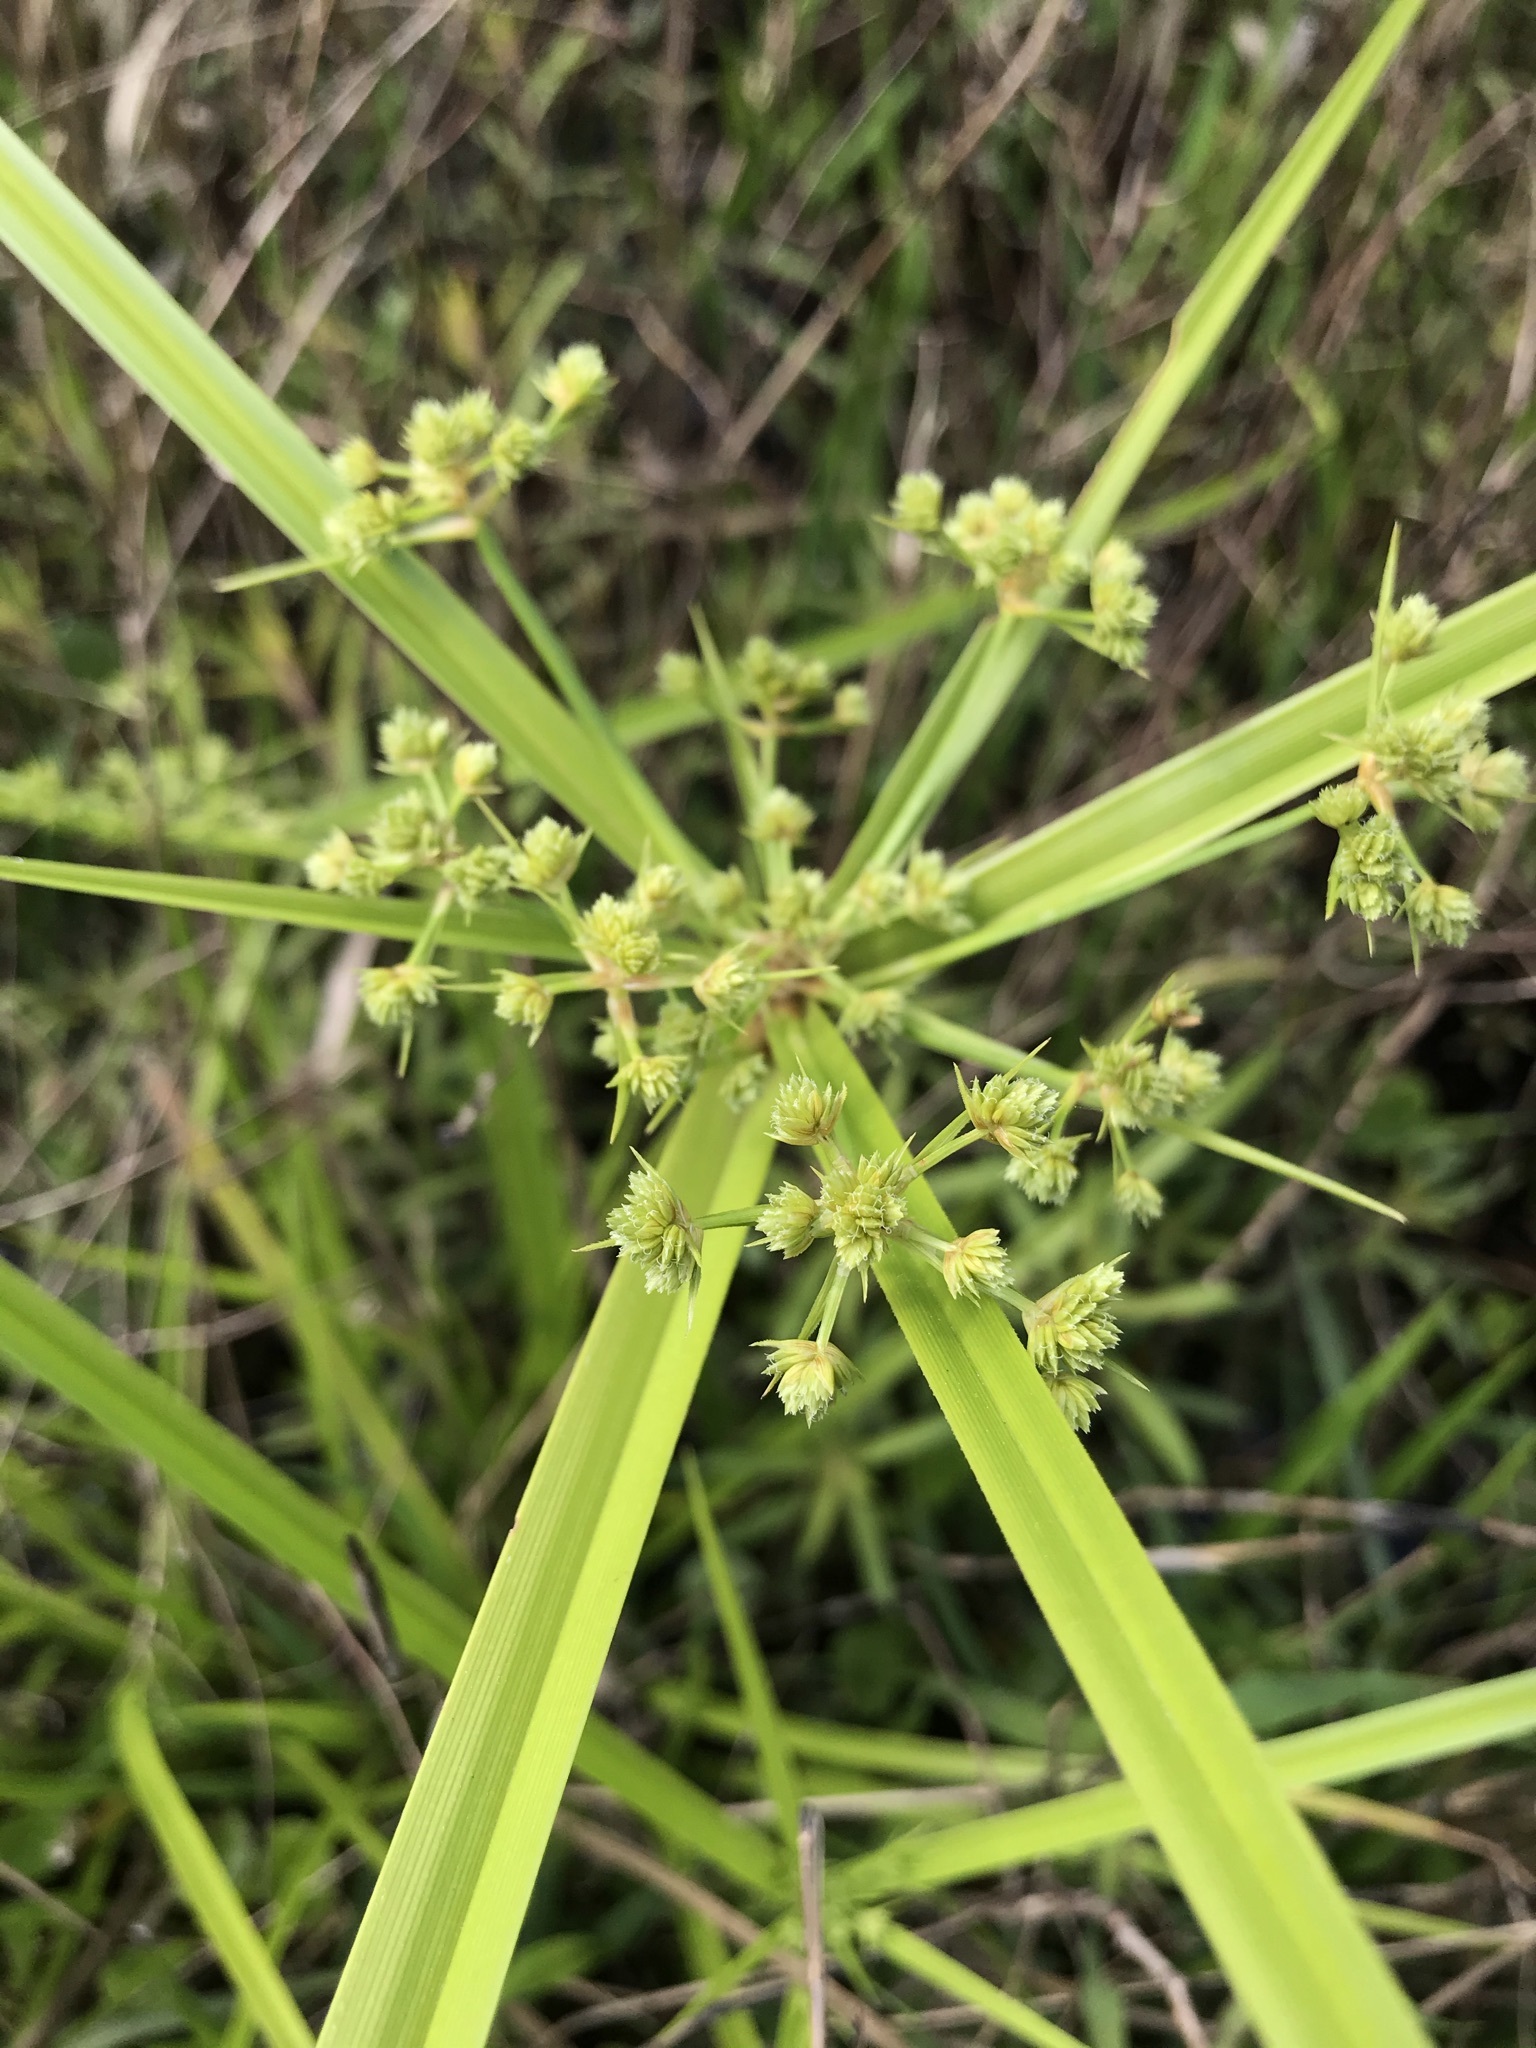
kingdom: Plantae
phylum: Tracheophyta
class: Liliopsida
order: Poales
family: Cyperaceae
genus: Cyperus
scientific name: Cyperus virens
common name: Green flatsedge
